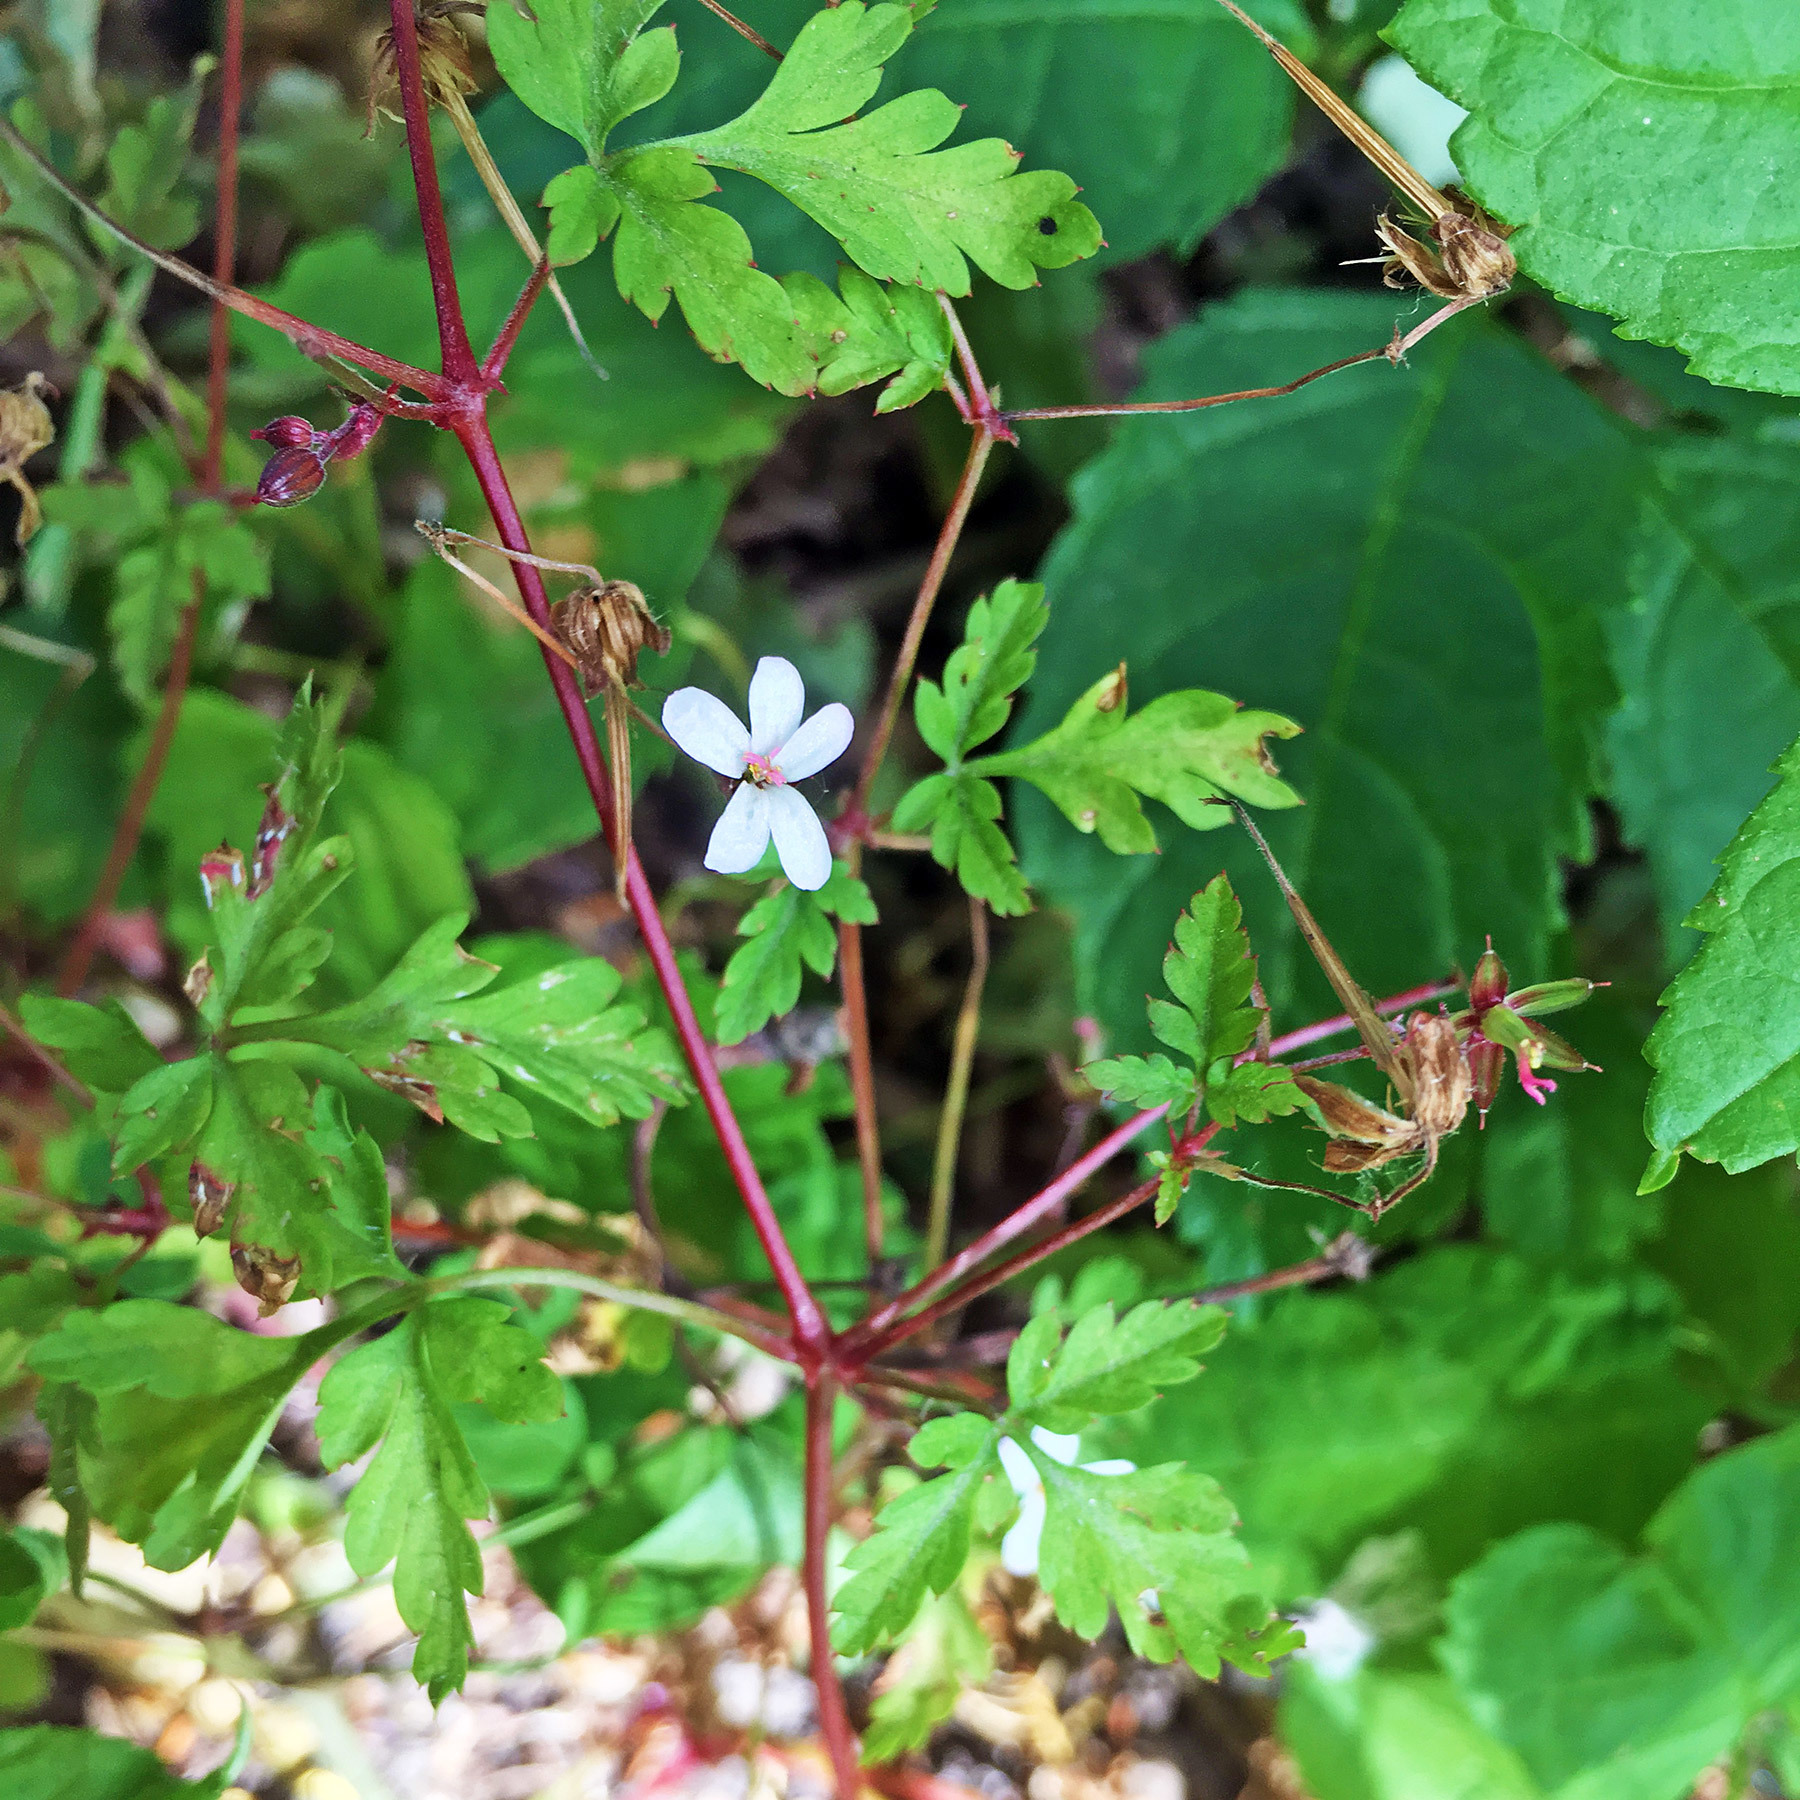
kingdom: Plantae
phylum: Tracheophyta
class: Magnoliopsida
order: Geraniales
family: Geraniaceae
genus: Geranium
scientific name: Geranium robertianum
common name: Herb-robert
